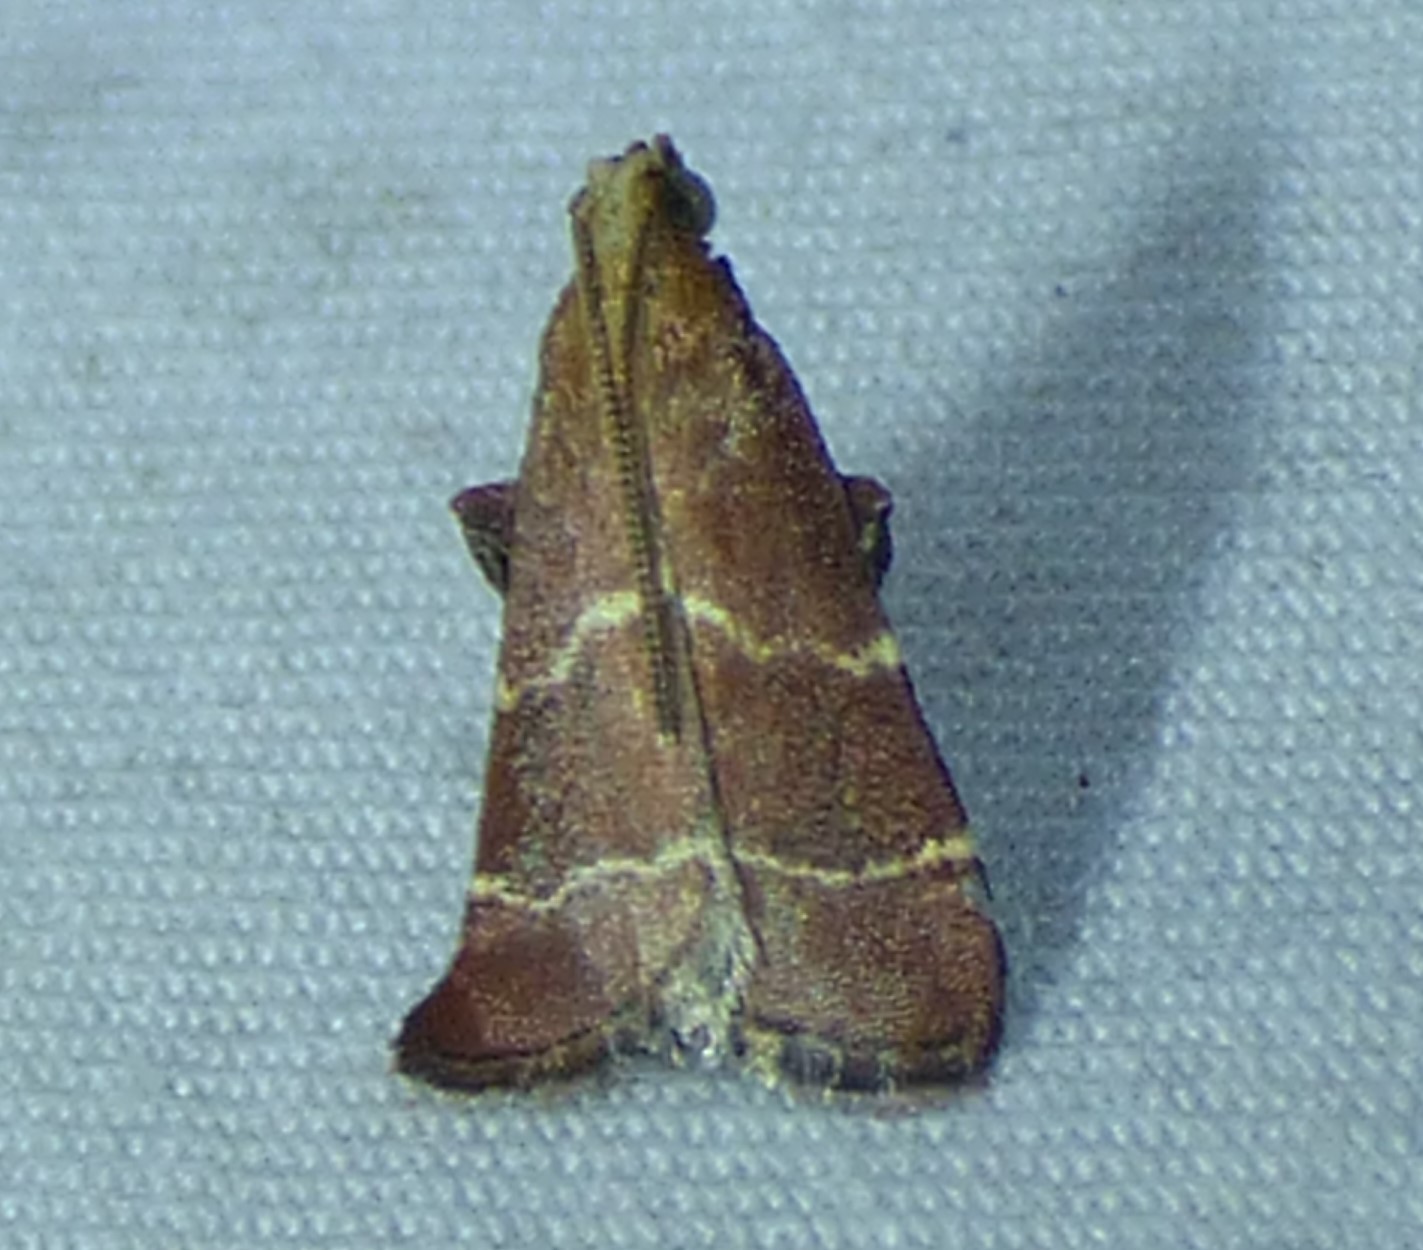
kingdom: Animalia
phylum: Arthropoda
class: Insecta
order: Lepidoptera
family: Pyralidae
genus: Arta
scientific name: Arta statalis
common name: Posturing arta moth
